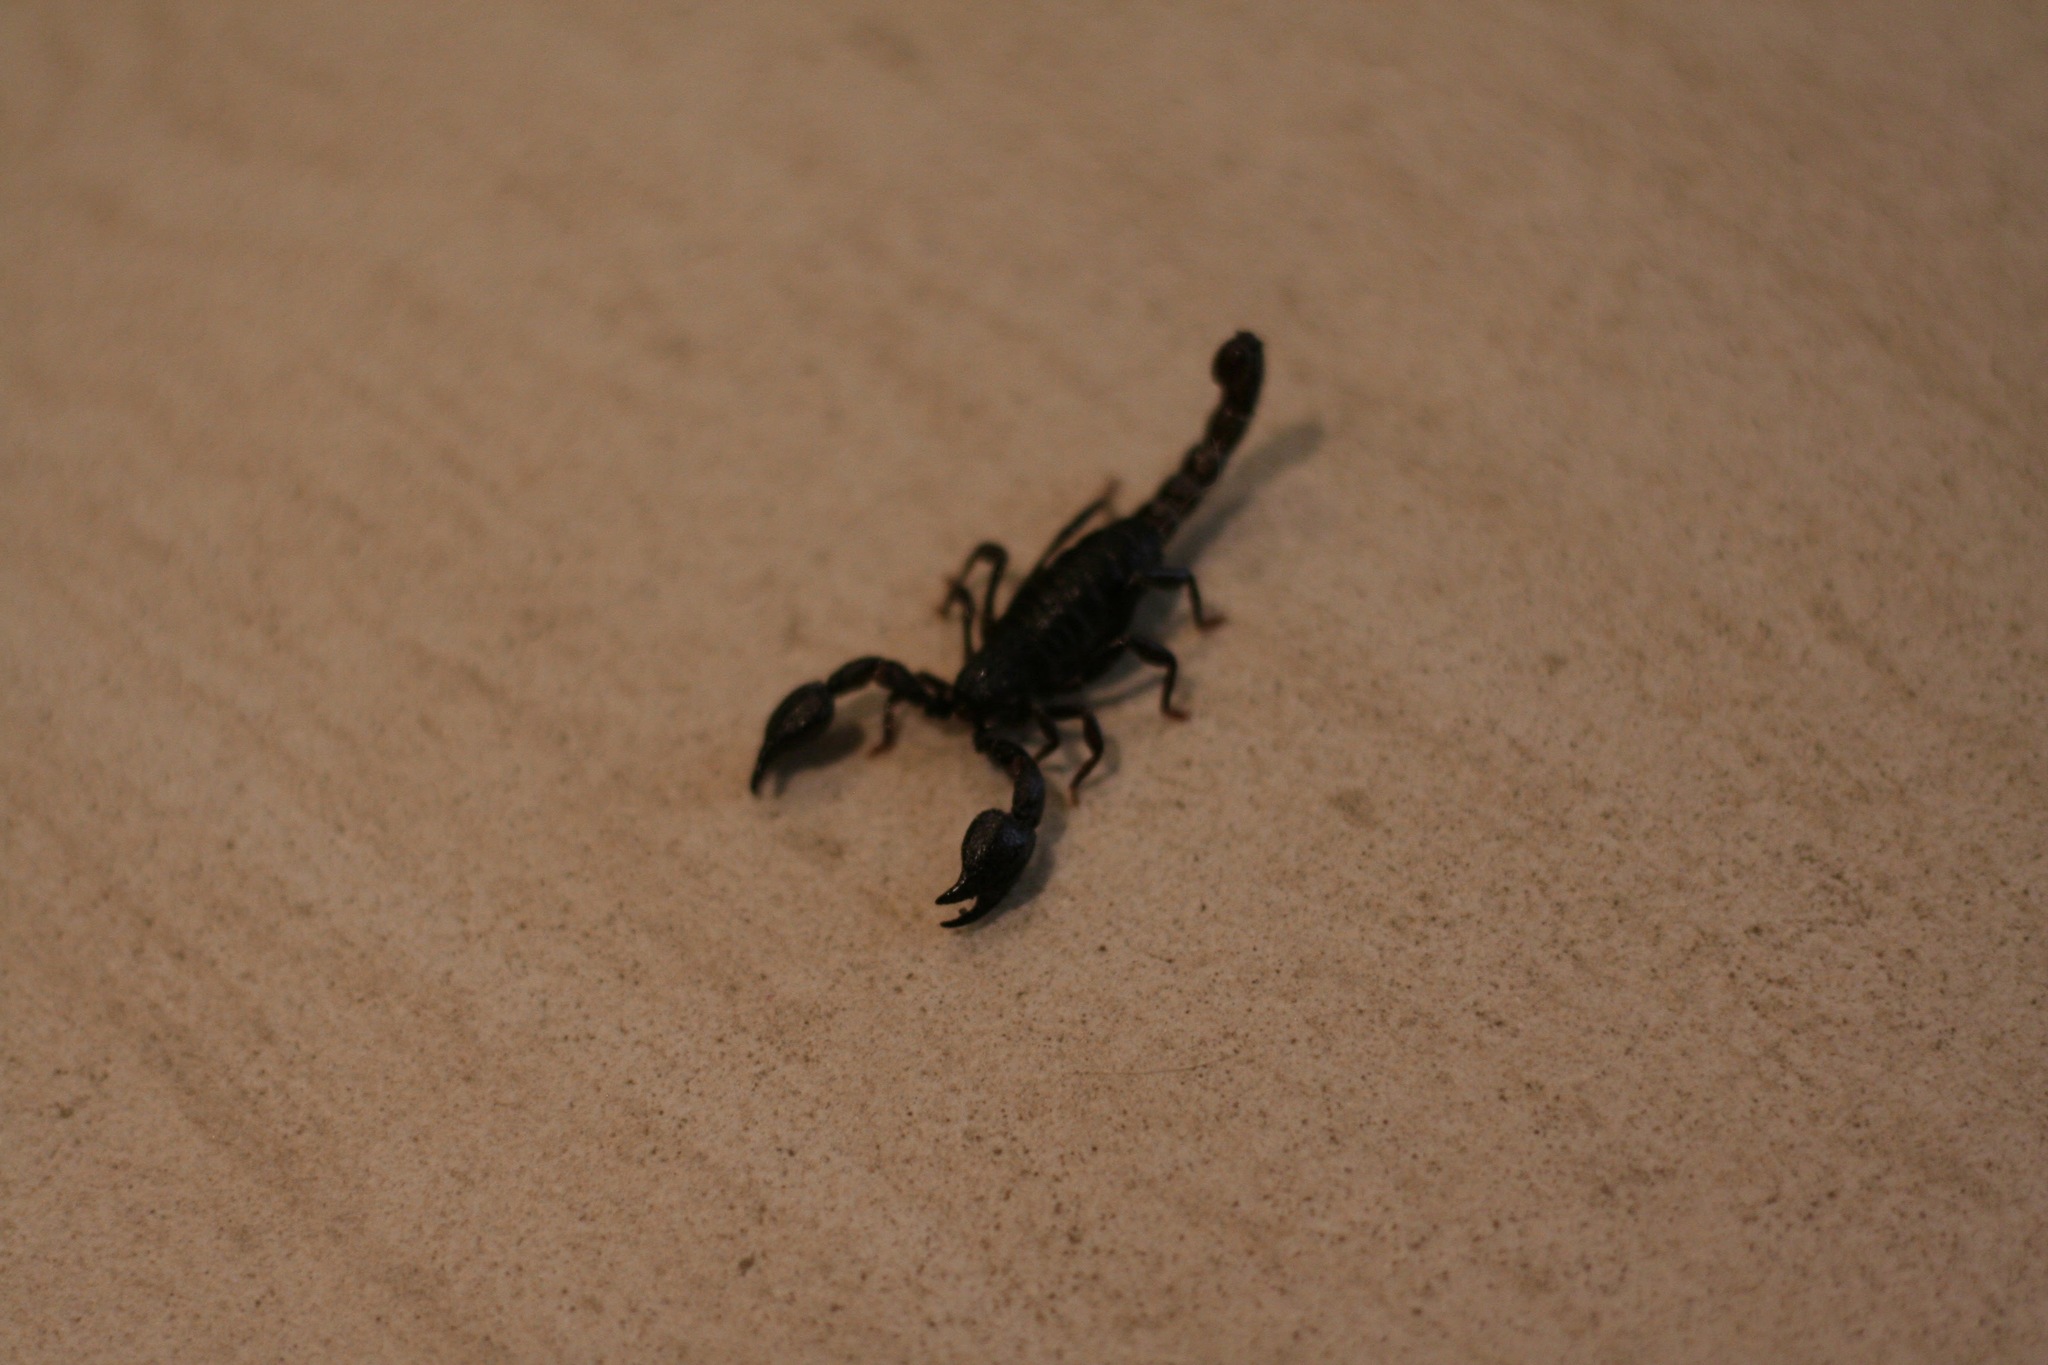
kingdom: Animalia
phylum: Arthropoda
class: Arachnida
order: Scorpiones
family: Chactidae
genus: Teuthraustes
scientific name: Teuthraustes atramentarius
